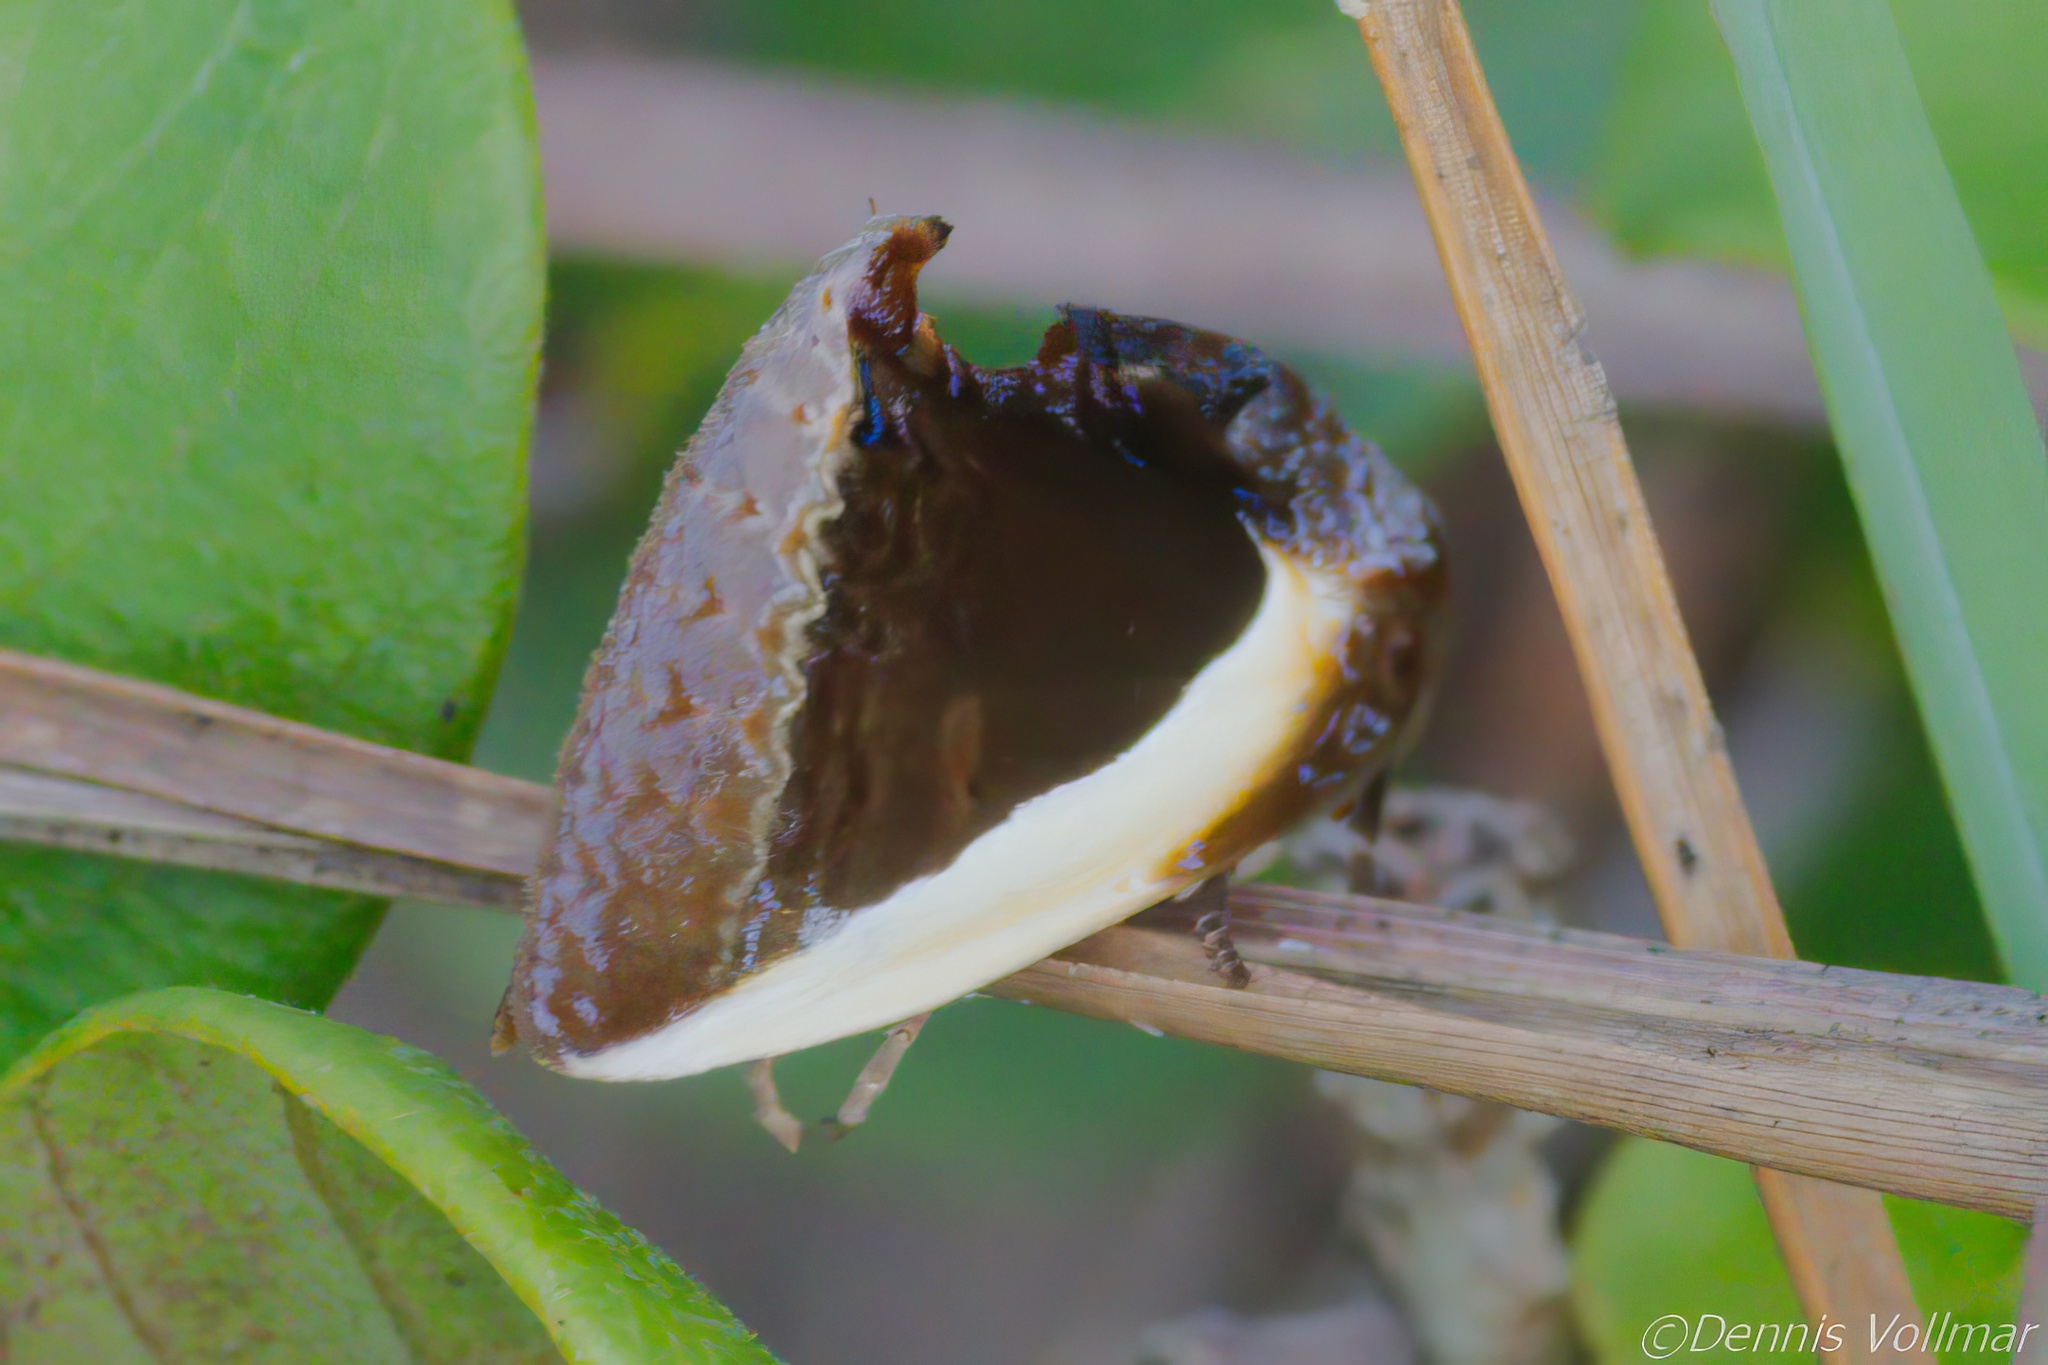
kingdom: Animalia
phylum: Arthropoda
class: Insecta
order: Lepidoptera
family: Erebidae
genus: Gonodonta
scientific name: Gonodonta nutrix
